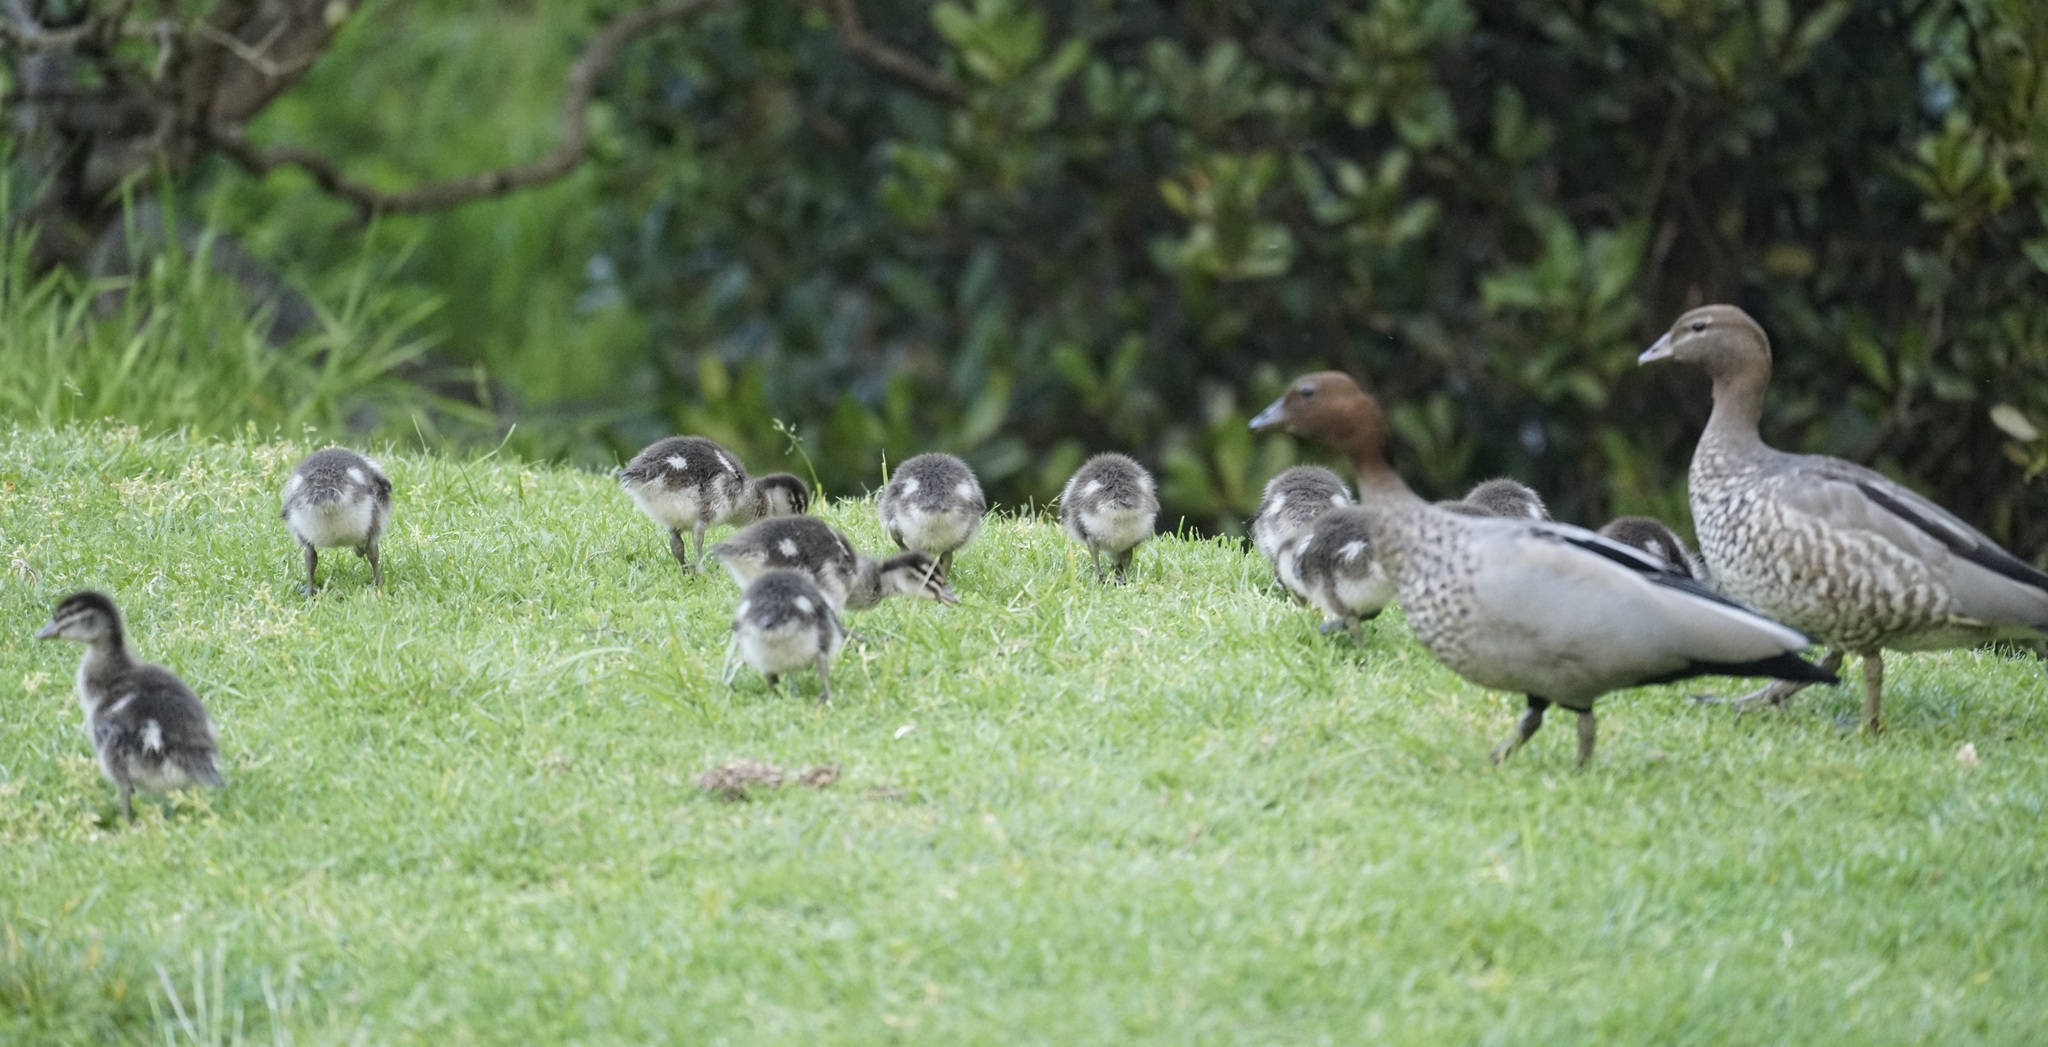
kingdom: Animalia
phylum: Chordata
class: Aves
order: Anseriformes
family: Anatidae
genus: Chenonetta
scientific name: Chenonetta jubata
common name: Maned duck
